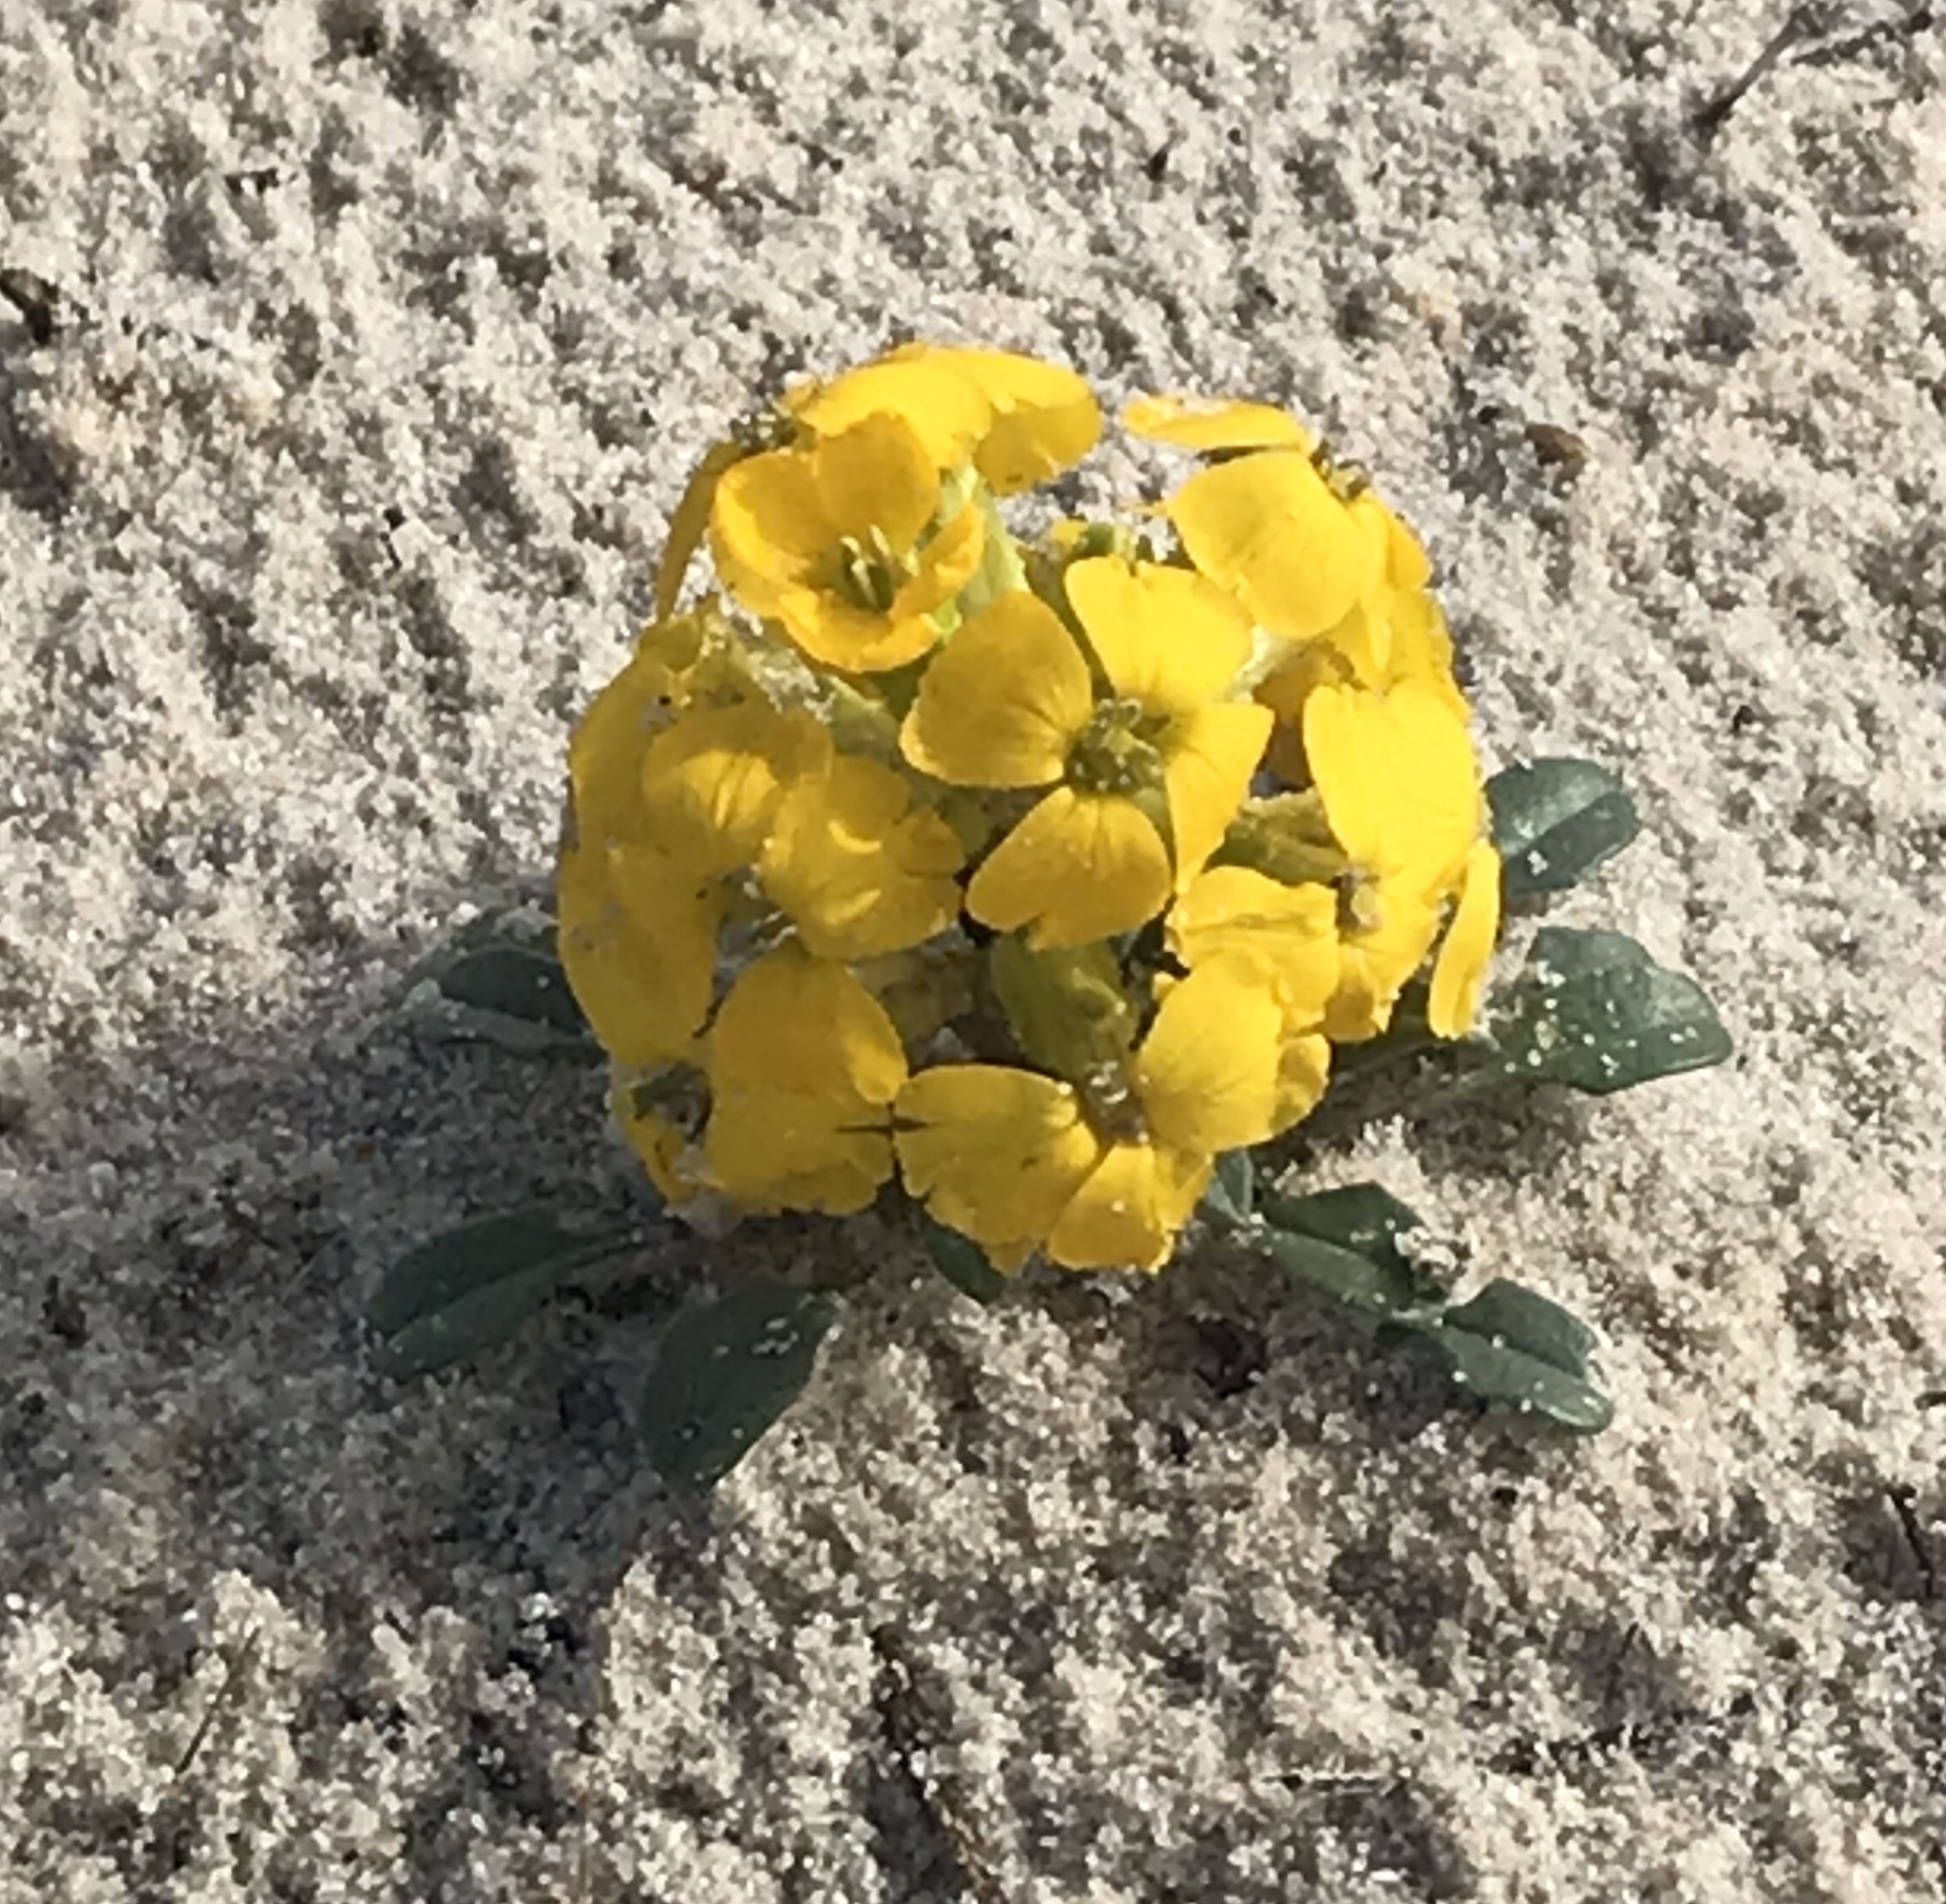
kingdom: Plantae
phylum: Tracheophyta
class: Magnoliopsida
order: Brassicales
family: Brassicaceae
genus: Erysimum
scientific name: Erysimum menziesii
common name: Menzies's wallflower
